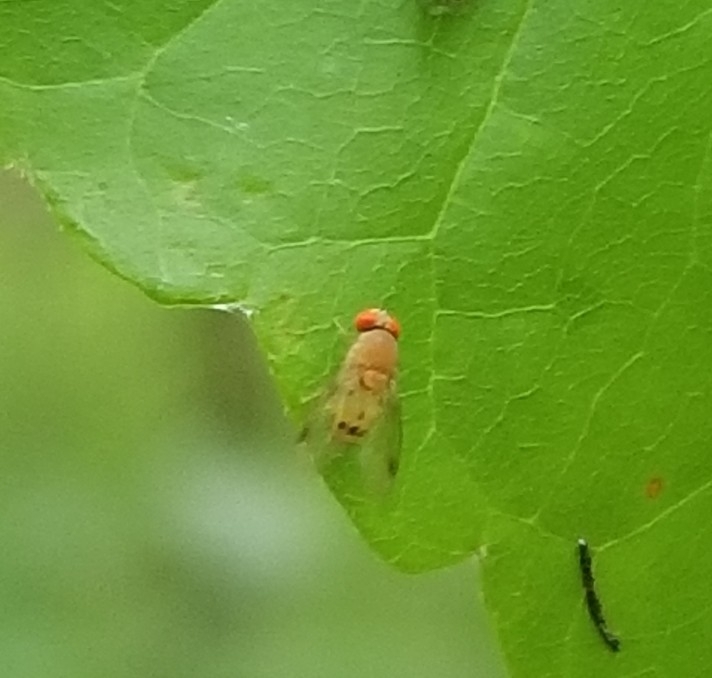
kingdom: Animalia
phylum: Arthropoda
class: Insecta
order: Diptera
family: Drosophilidae
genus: Chymomyza
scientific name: Chymomyza amoena
